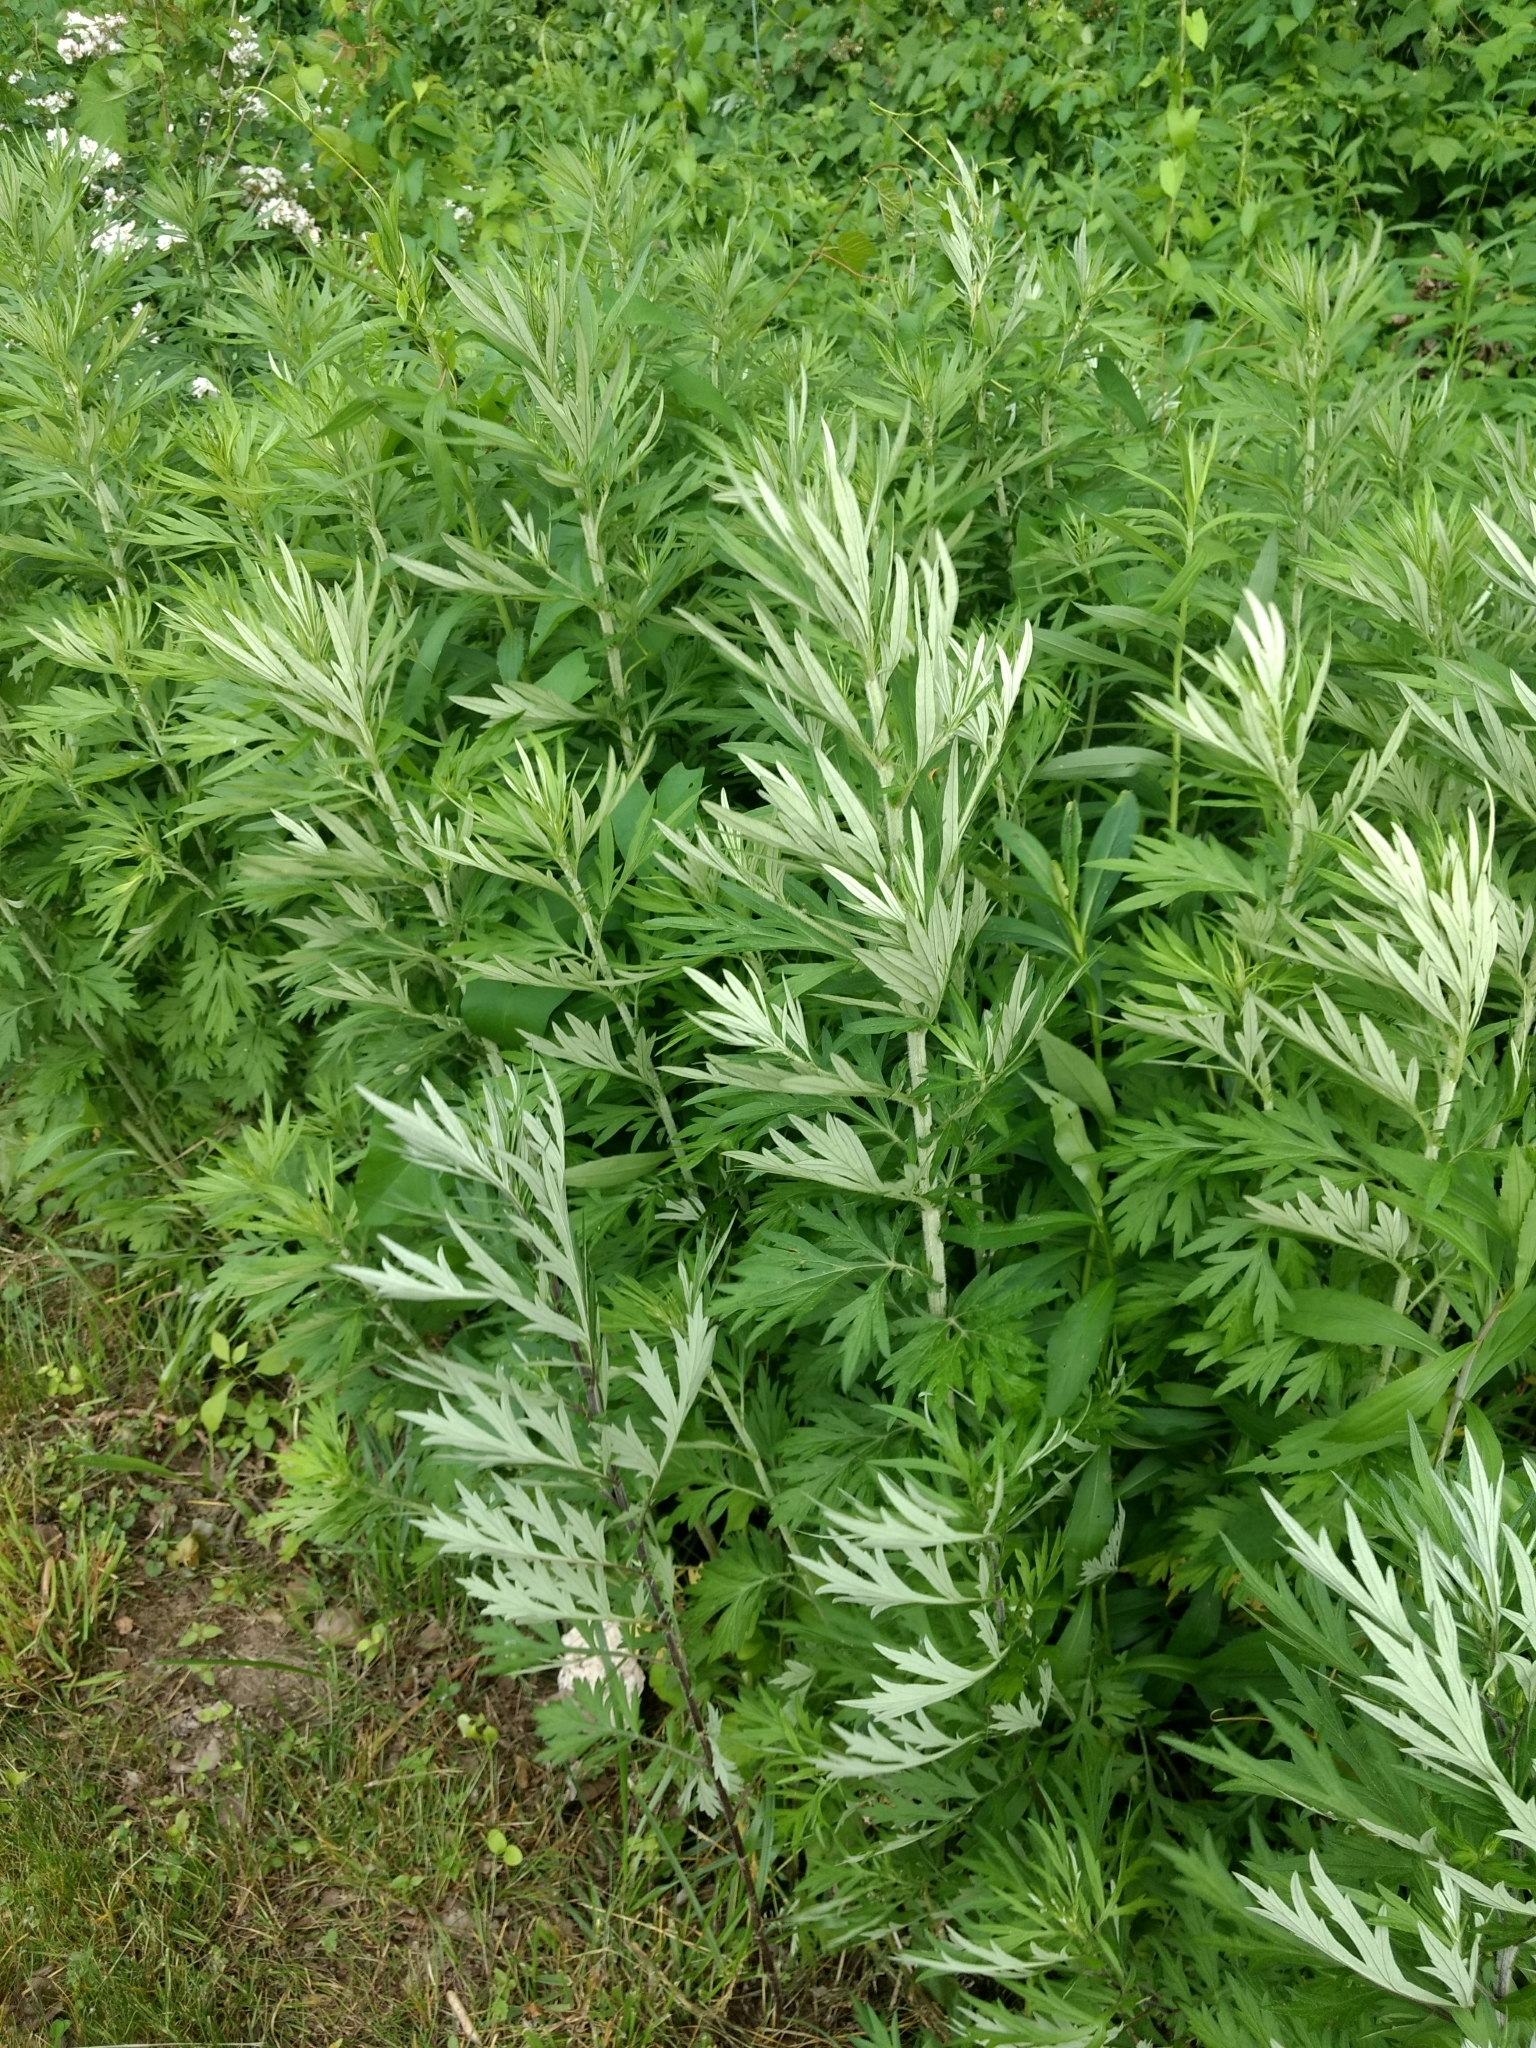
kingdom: Plantae
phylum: Tracheophyta
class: Magnoliopsida
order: Asterales
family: Asteraceae
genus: Artemisia
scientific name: Artemisia vulgaris
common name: Mugwort
